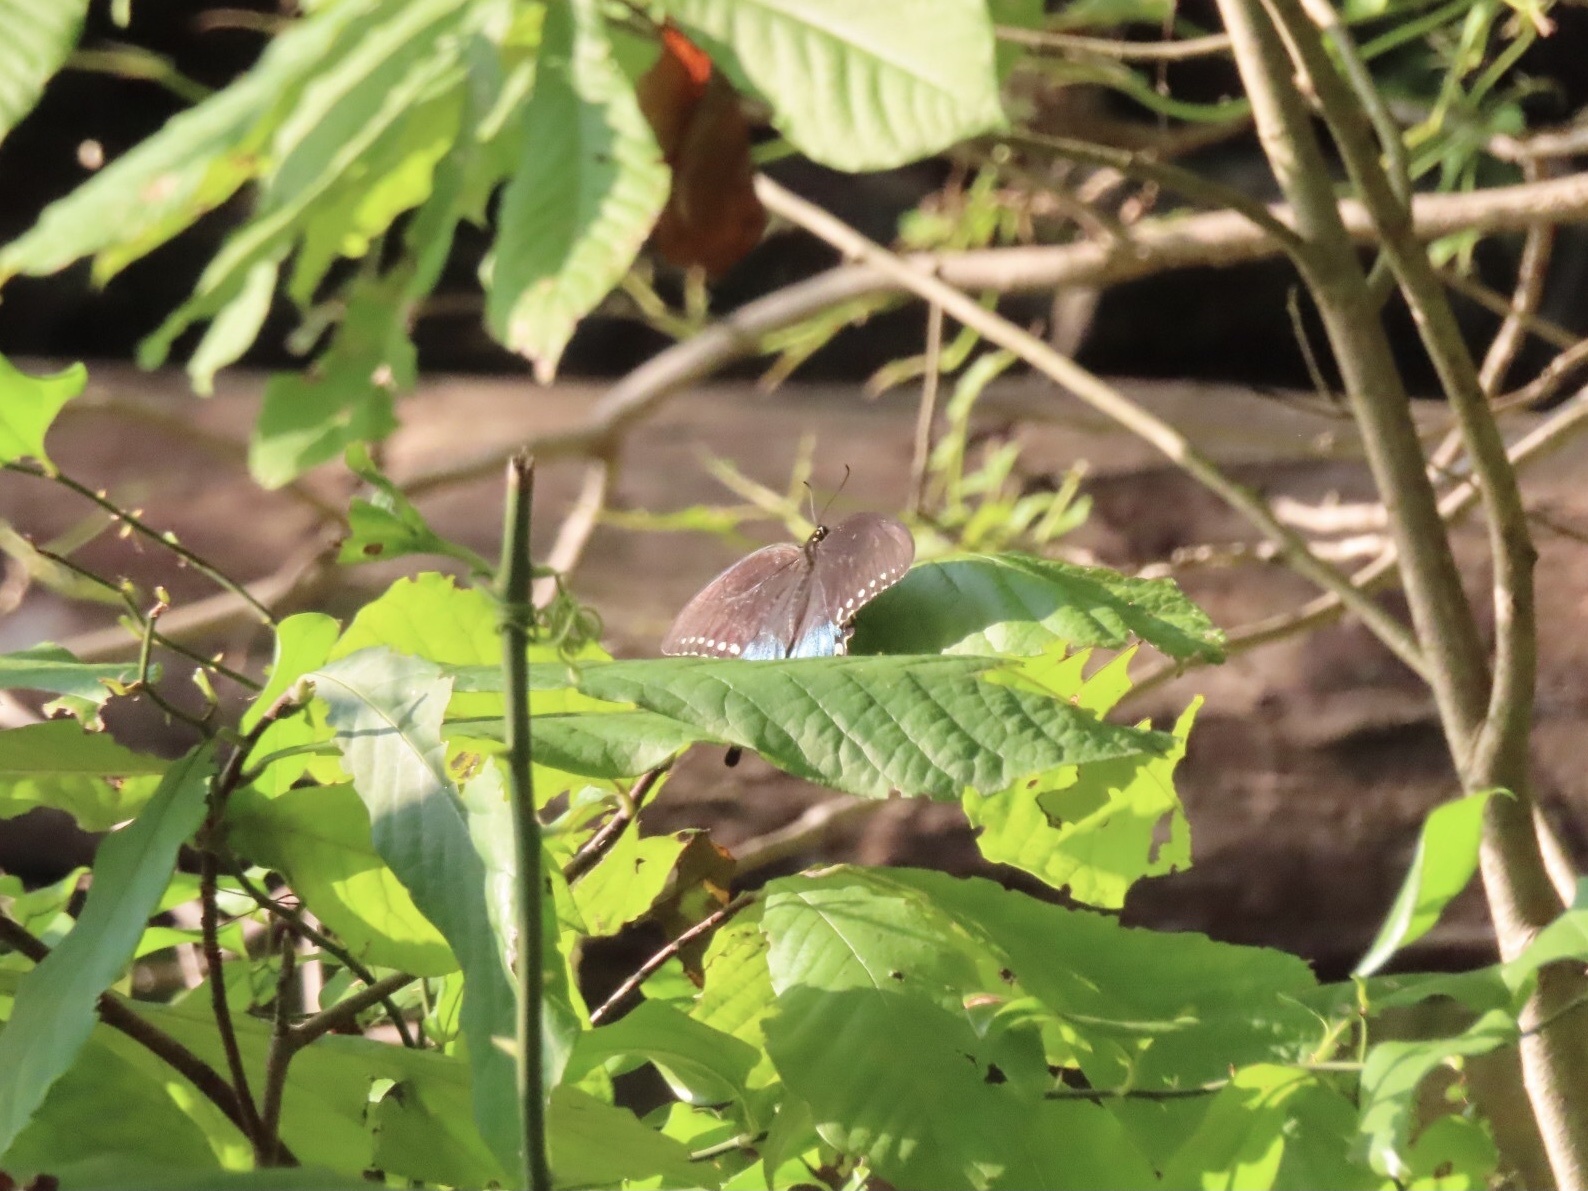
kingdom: Animalia
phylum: Arthropoda
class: Insecta
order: Lepidoptera
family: Papilionidae
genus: Papilio
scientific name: Papilio troilus
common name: Spicebush swallowtail
